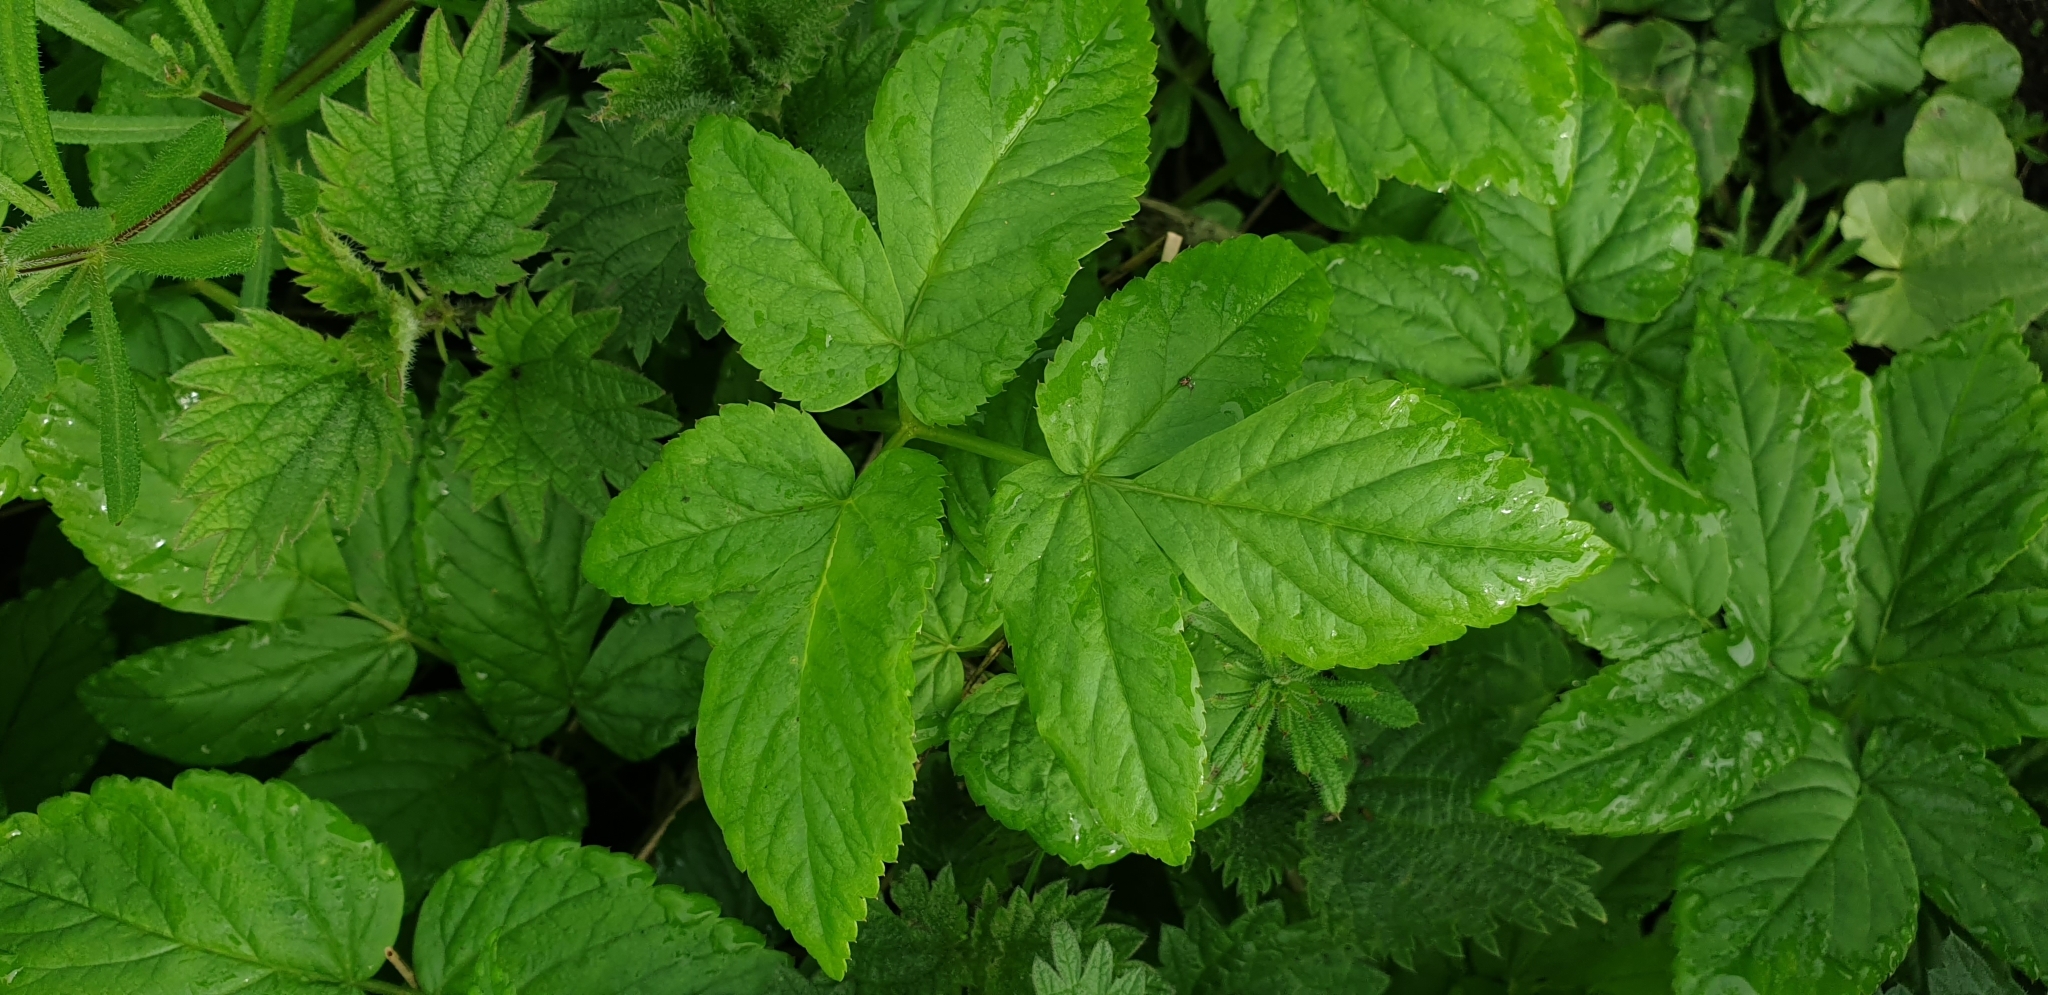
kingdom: Plantae
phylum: Tracheophyta
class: Magnoliopsida
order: Apiales
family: Apiaceae
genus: Aegopodium
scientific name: Aegopodium podagraria
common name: Ground-elder
